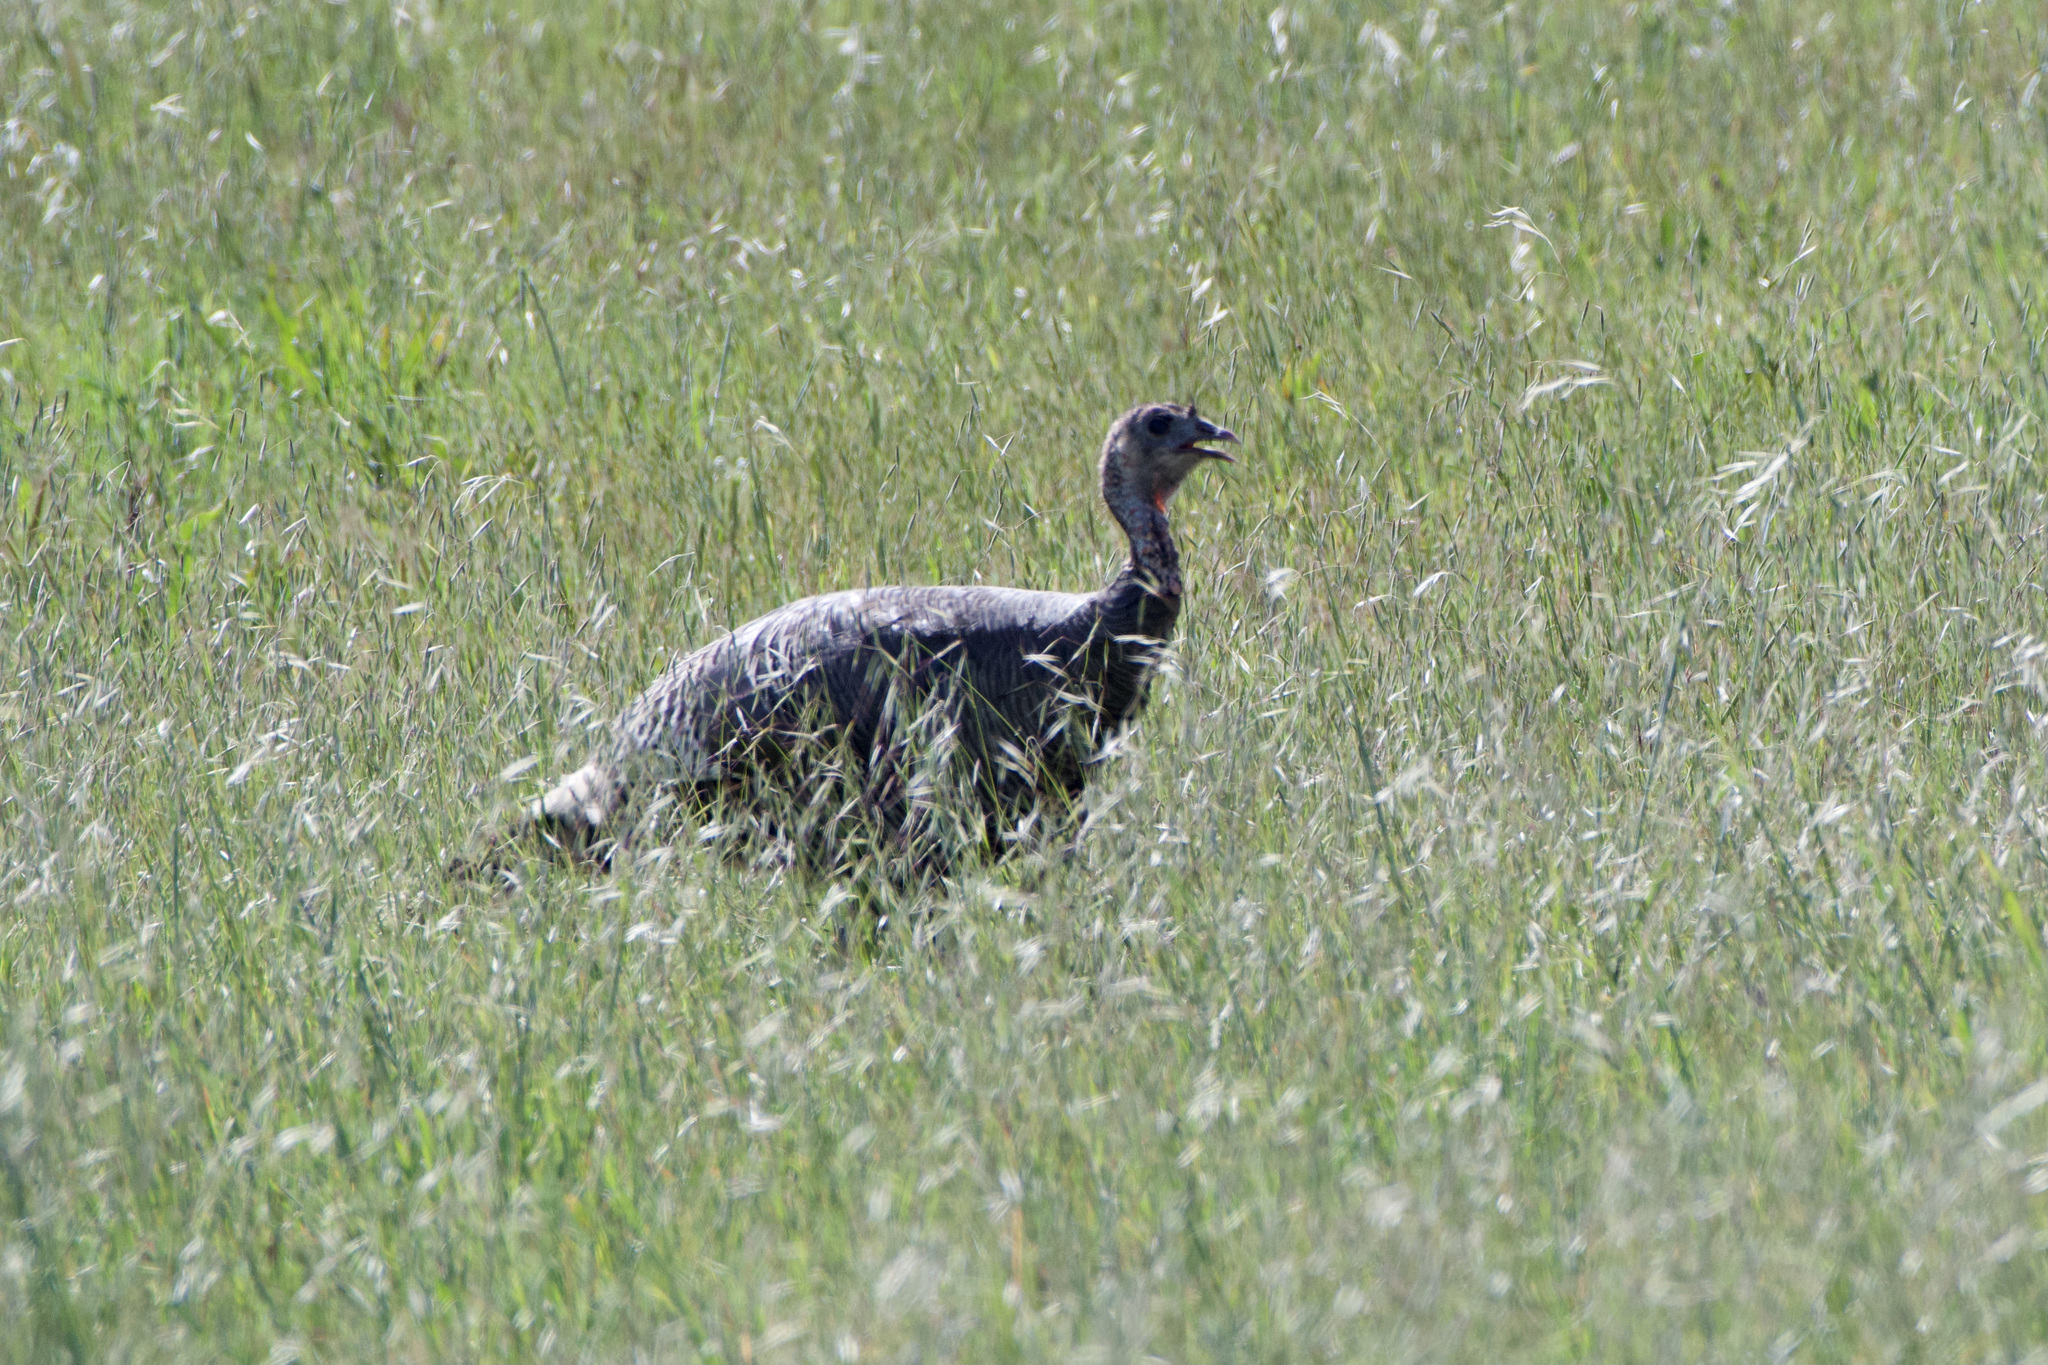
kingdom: Animalia
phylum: Chordata
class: Aves
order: Galliformes
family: Phasianidae
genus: Meleagris
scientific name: Meleagris gallopavo
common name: Wild turkey
